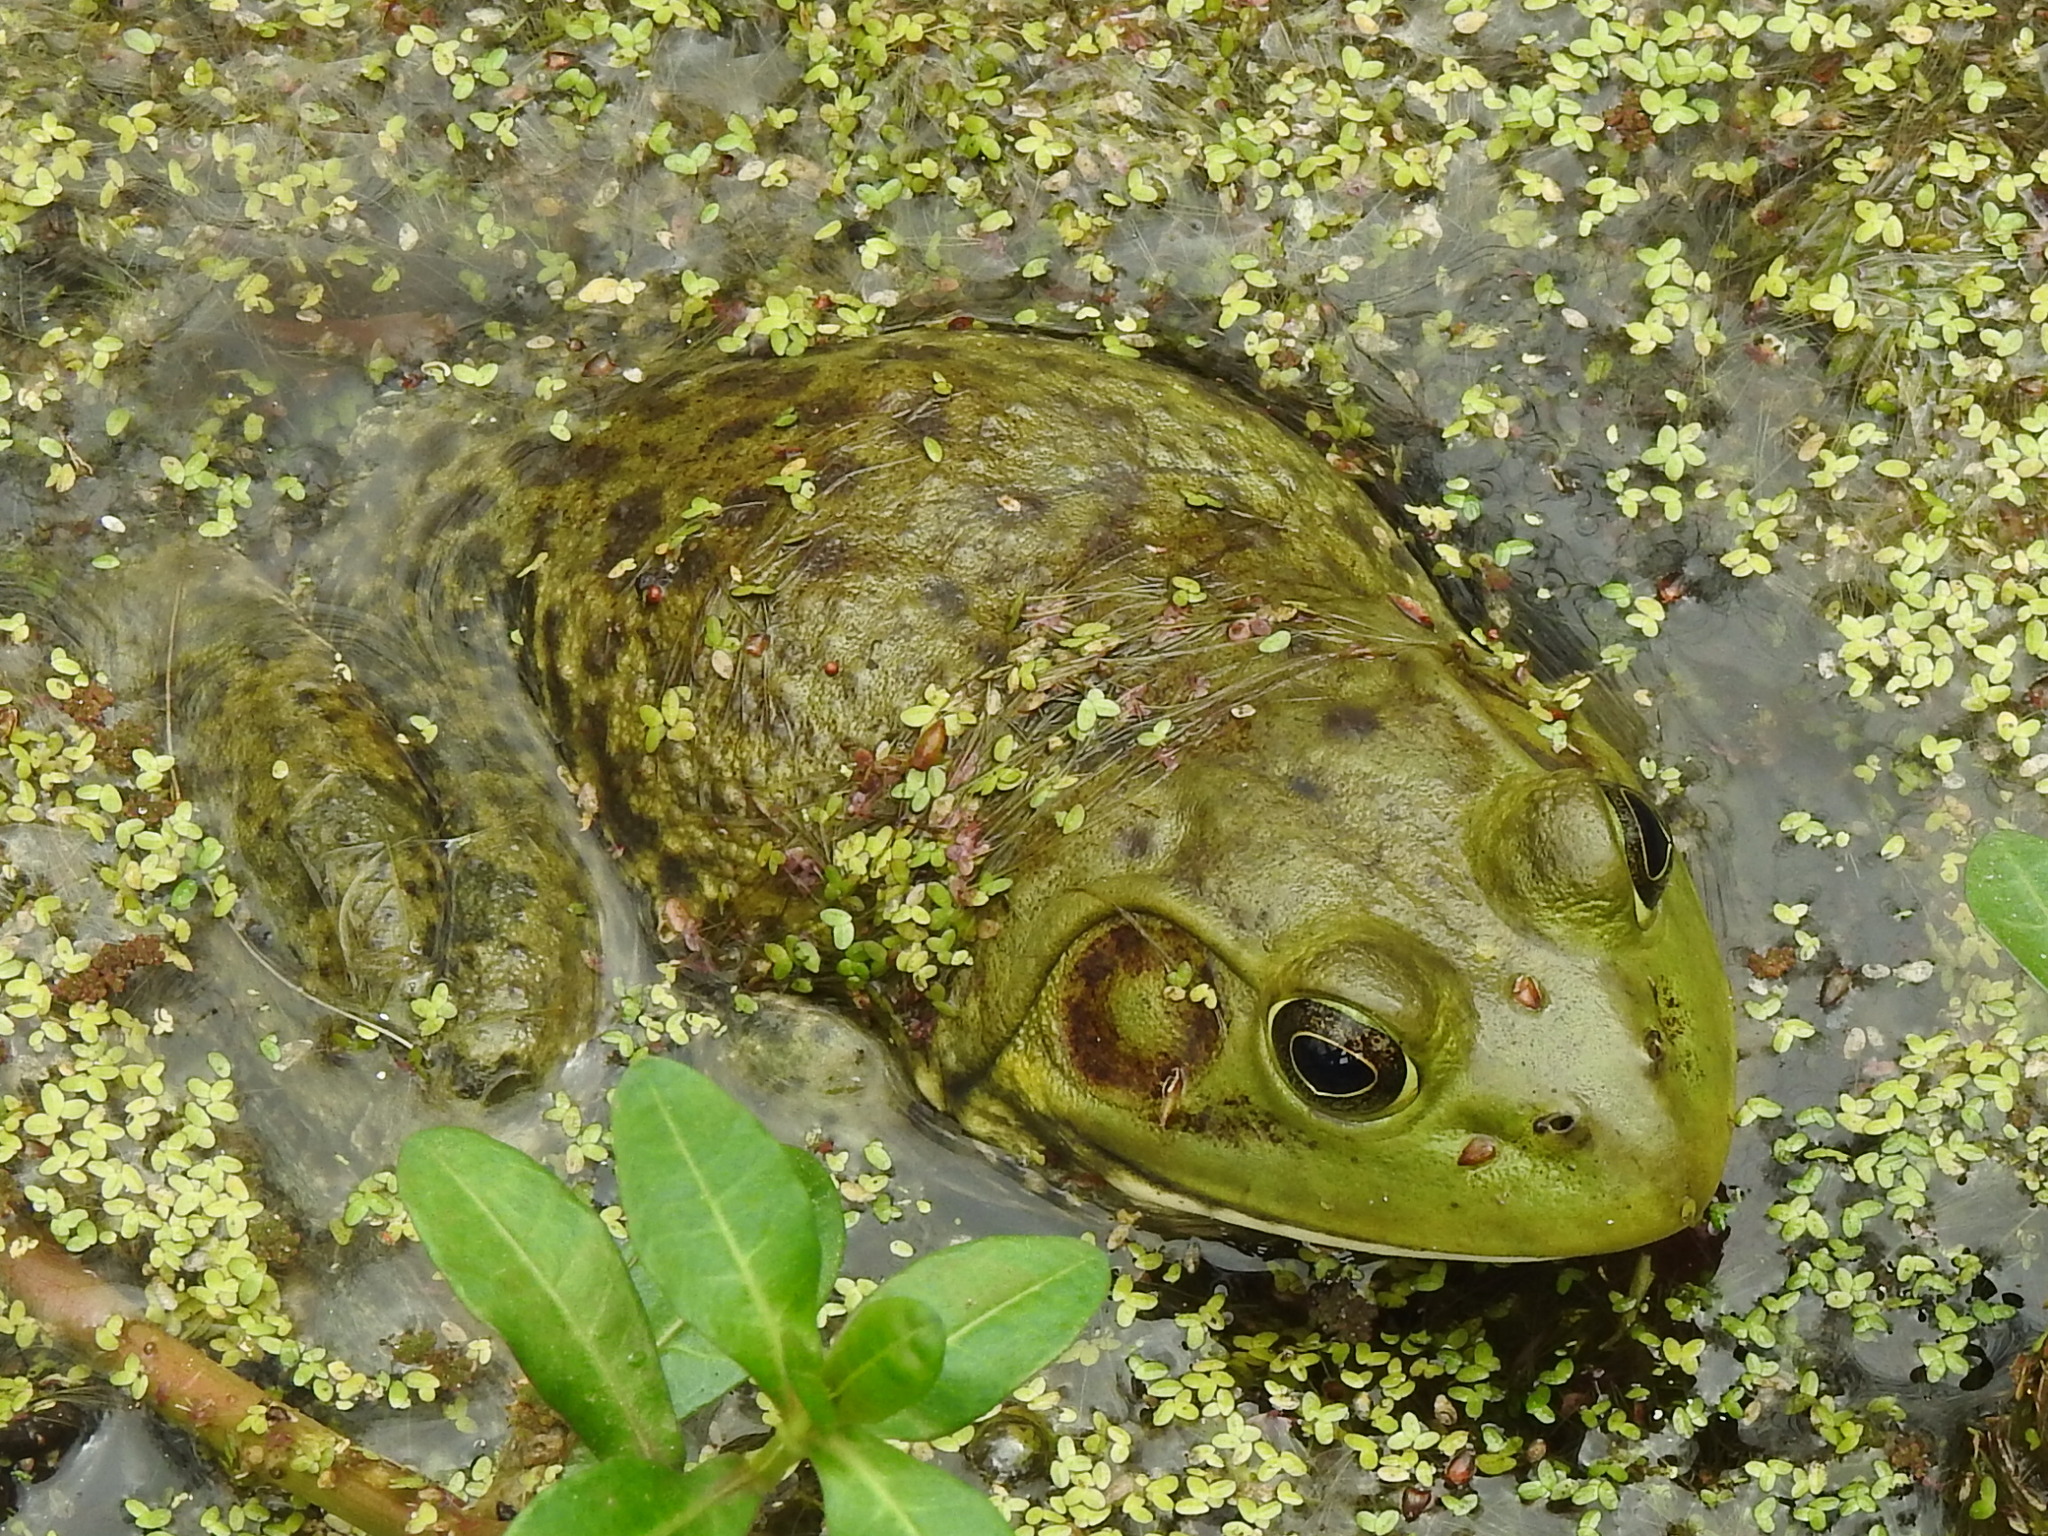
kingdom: Animalia
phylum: Chordata
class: Amphibia
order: Anura
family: Ranidae
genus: Lithobates
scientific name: Lithobates catesbeianus
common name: American bullfrog
